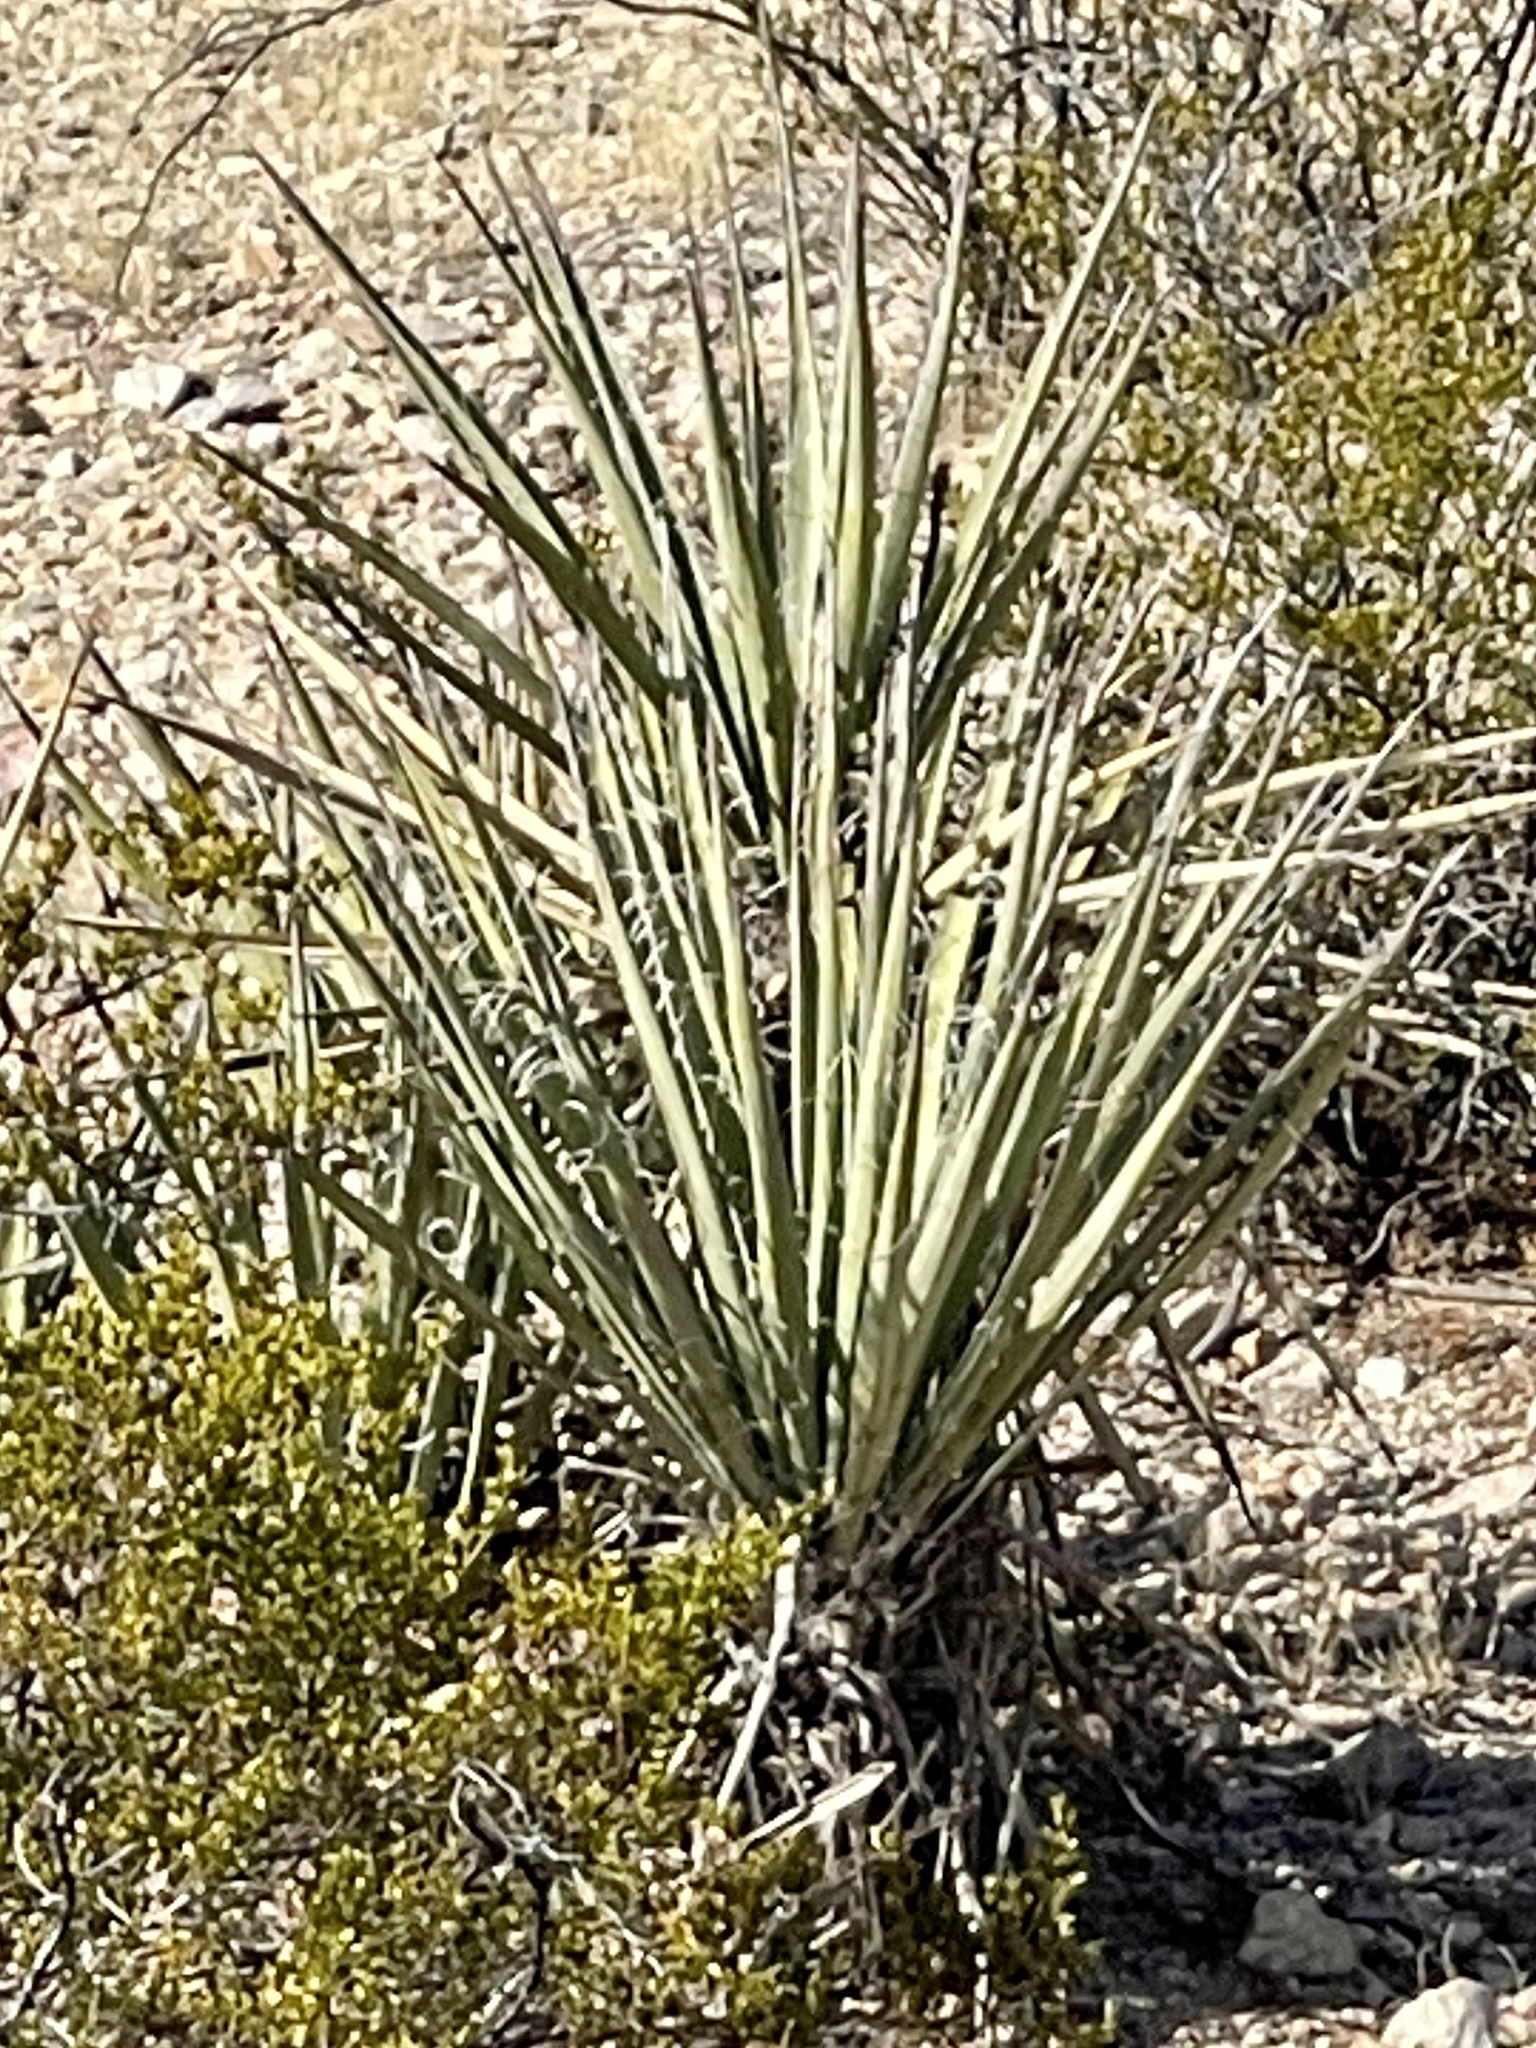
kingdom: Plantae
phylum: Tracheophyta
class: Liliopsida
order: Asparagales
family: Asparagaceae
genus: Yucca
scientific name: Yucca baccata
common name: Banana yucca
